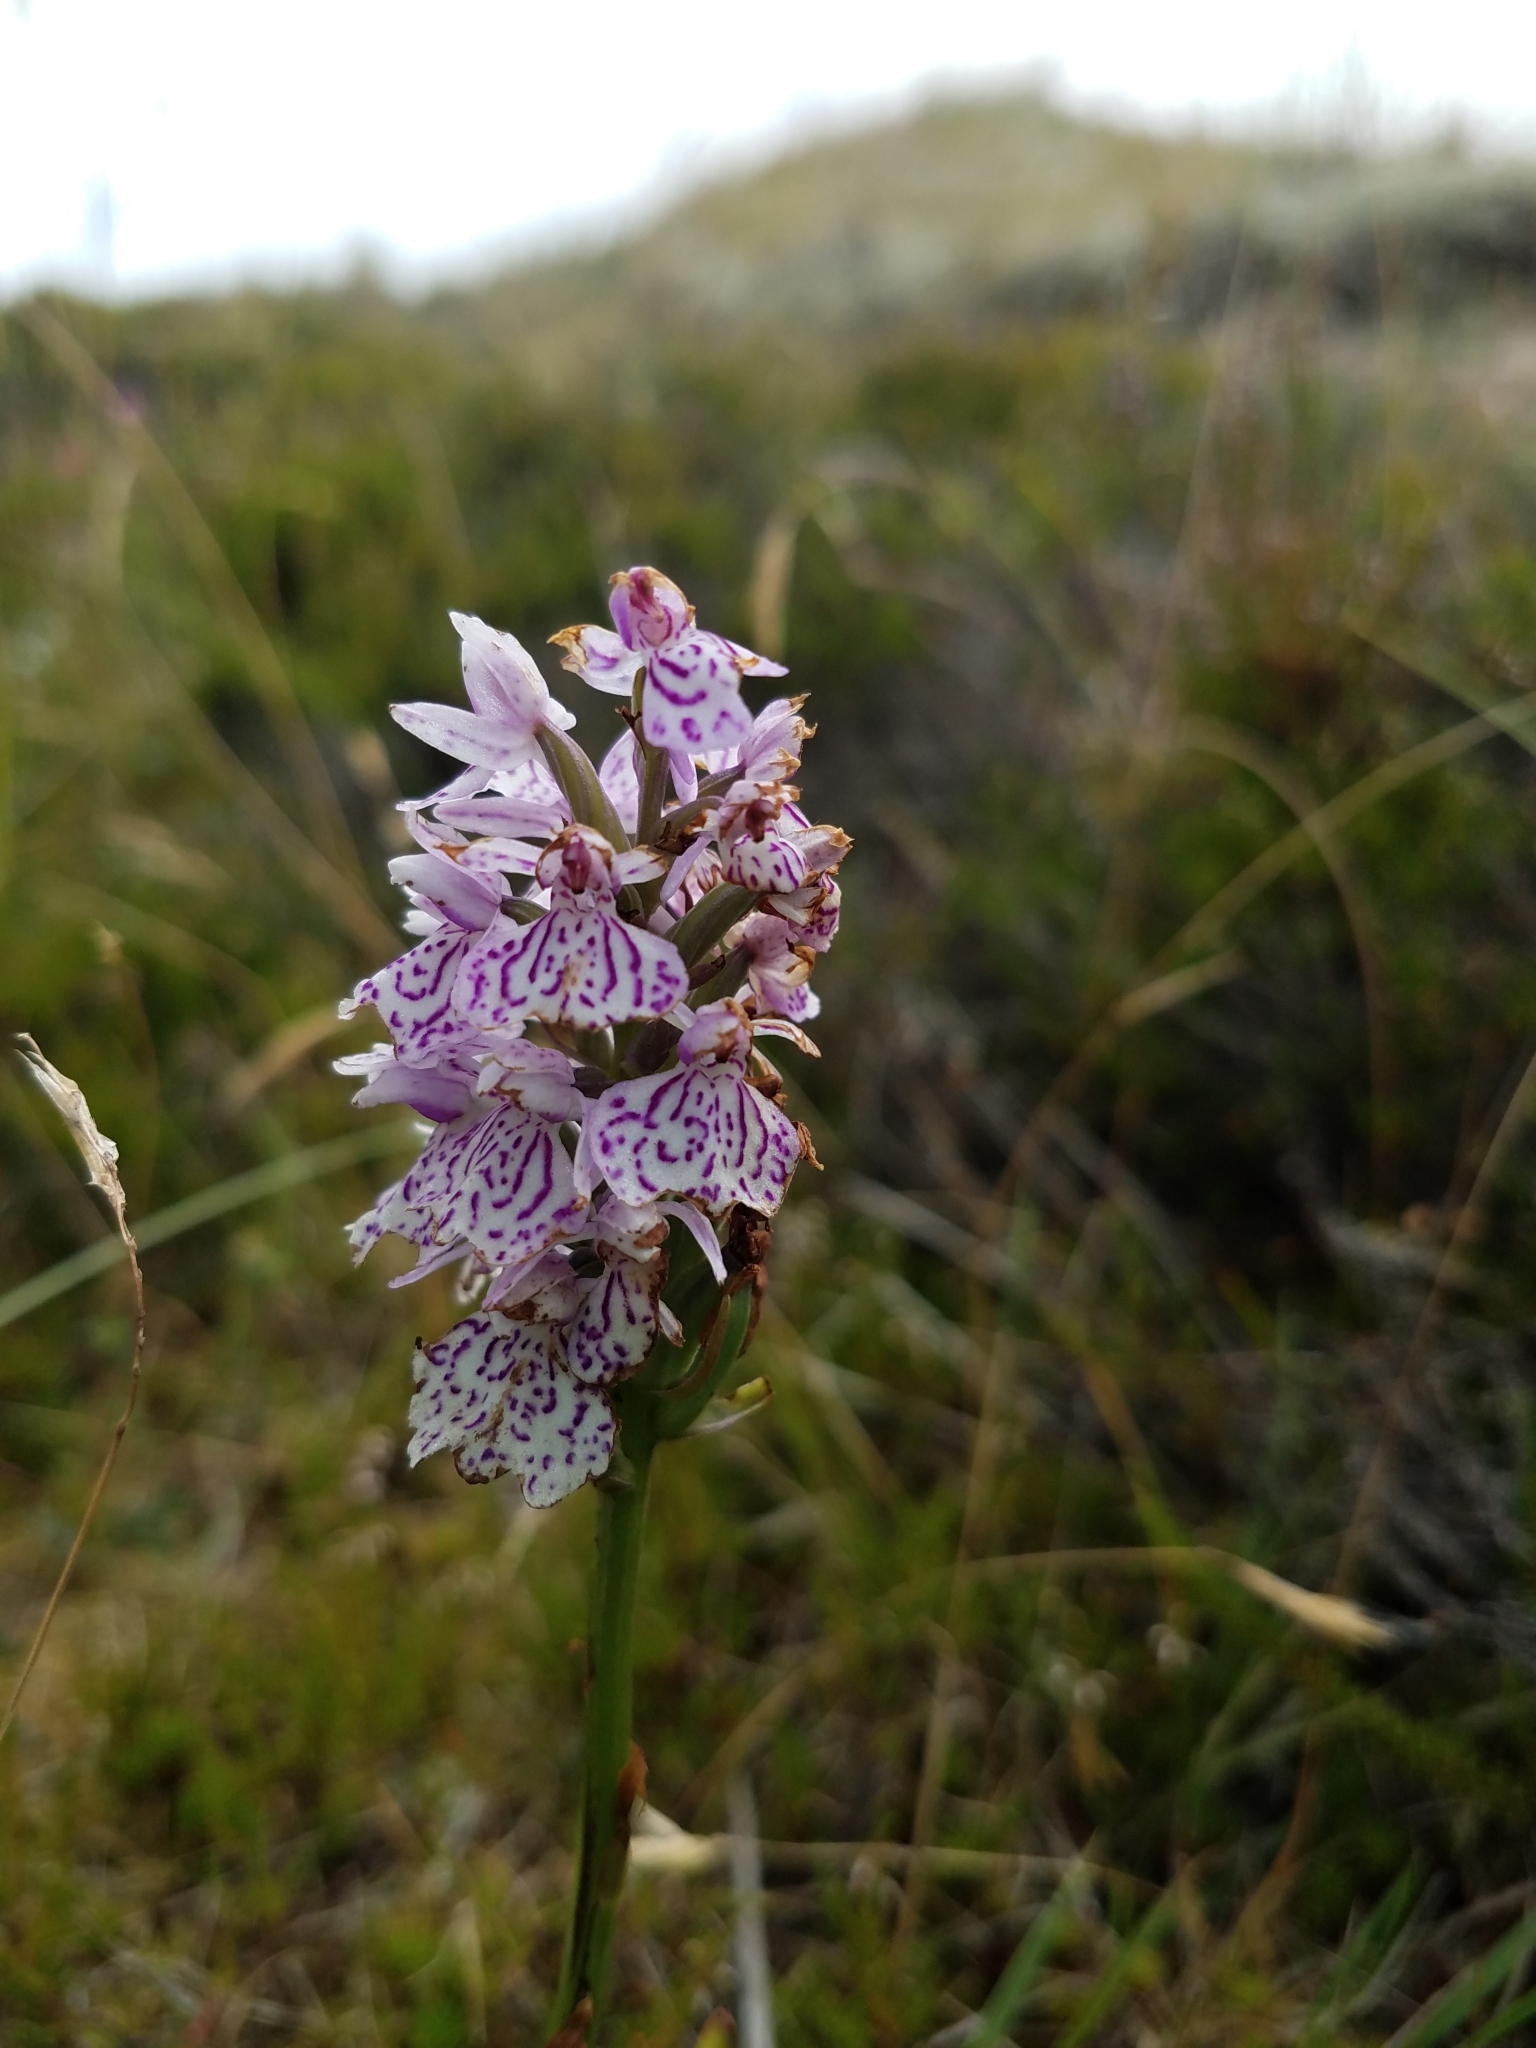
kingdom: Plantae
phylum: Tracheophyta
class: Liliopsida
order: Asparagales
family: Orchidaceae
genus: Dactylorhiza
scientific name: Dactylorhiza maculata
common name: Heath spotted-orchid
